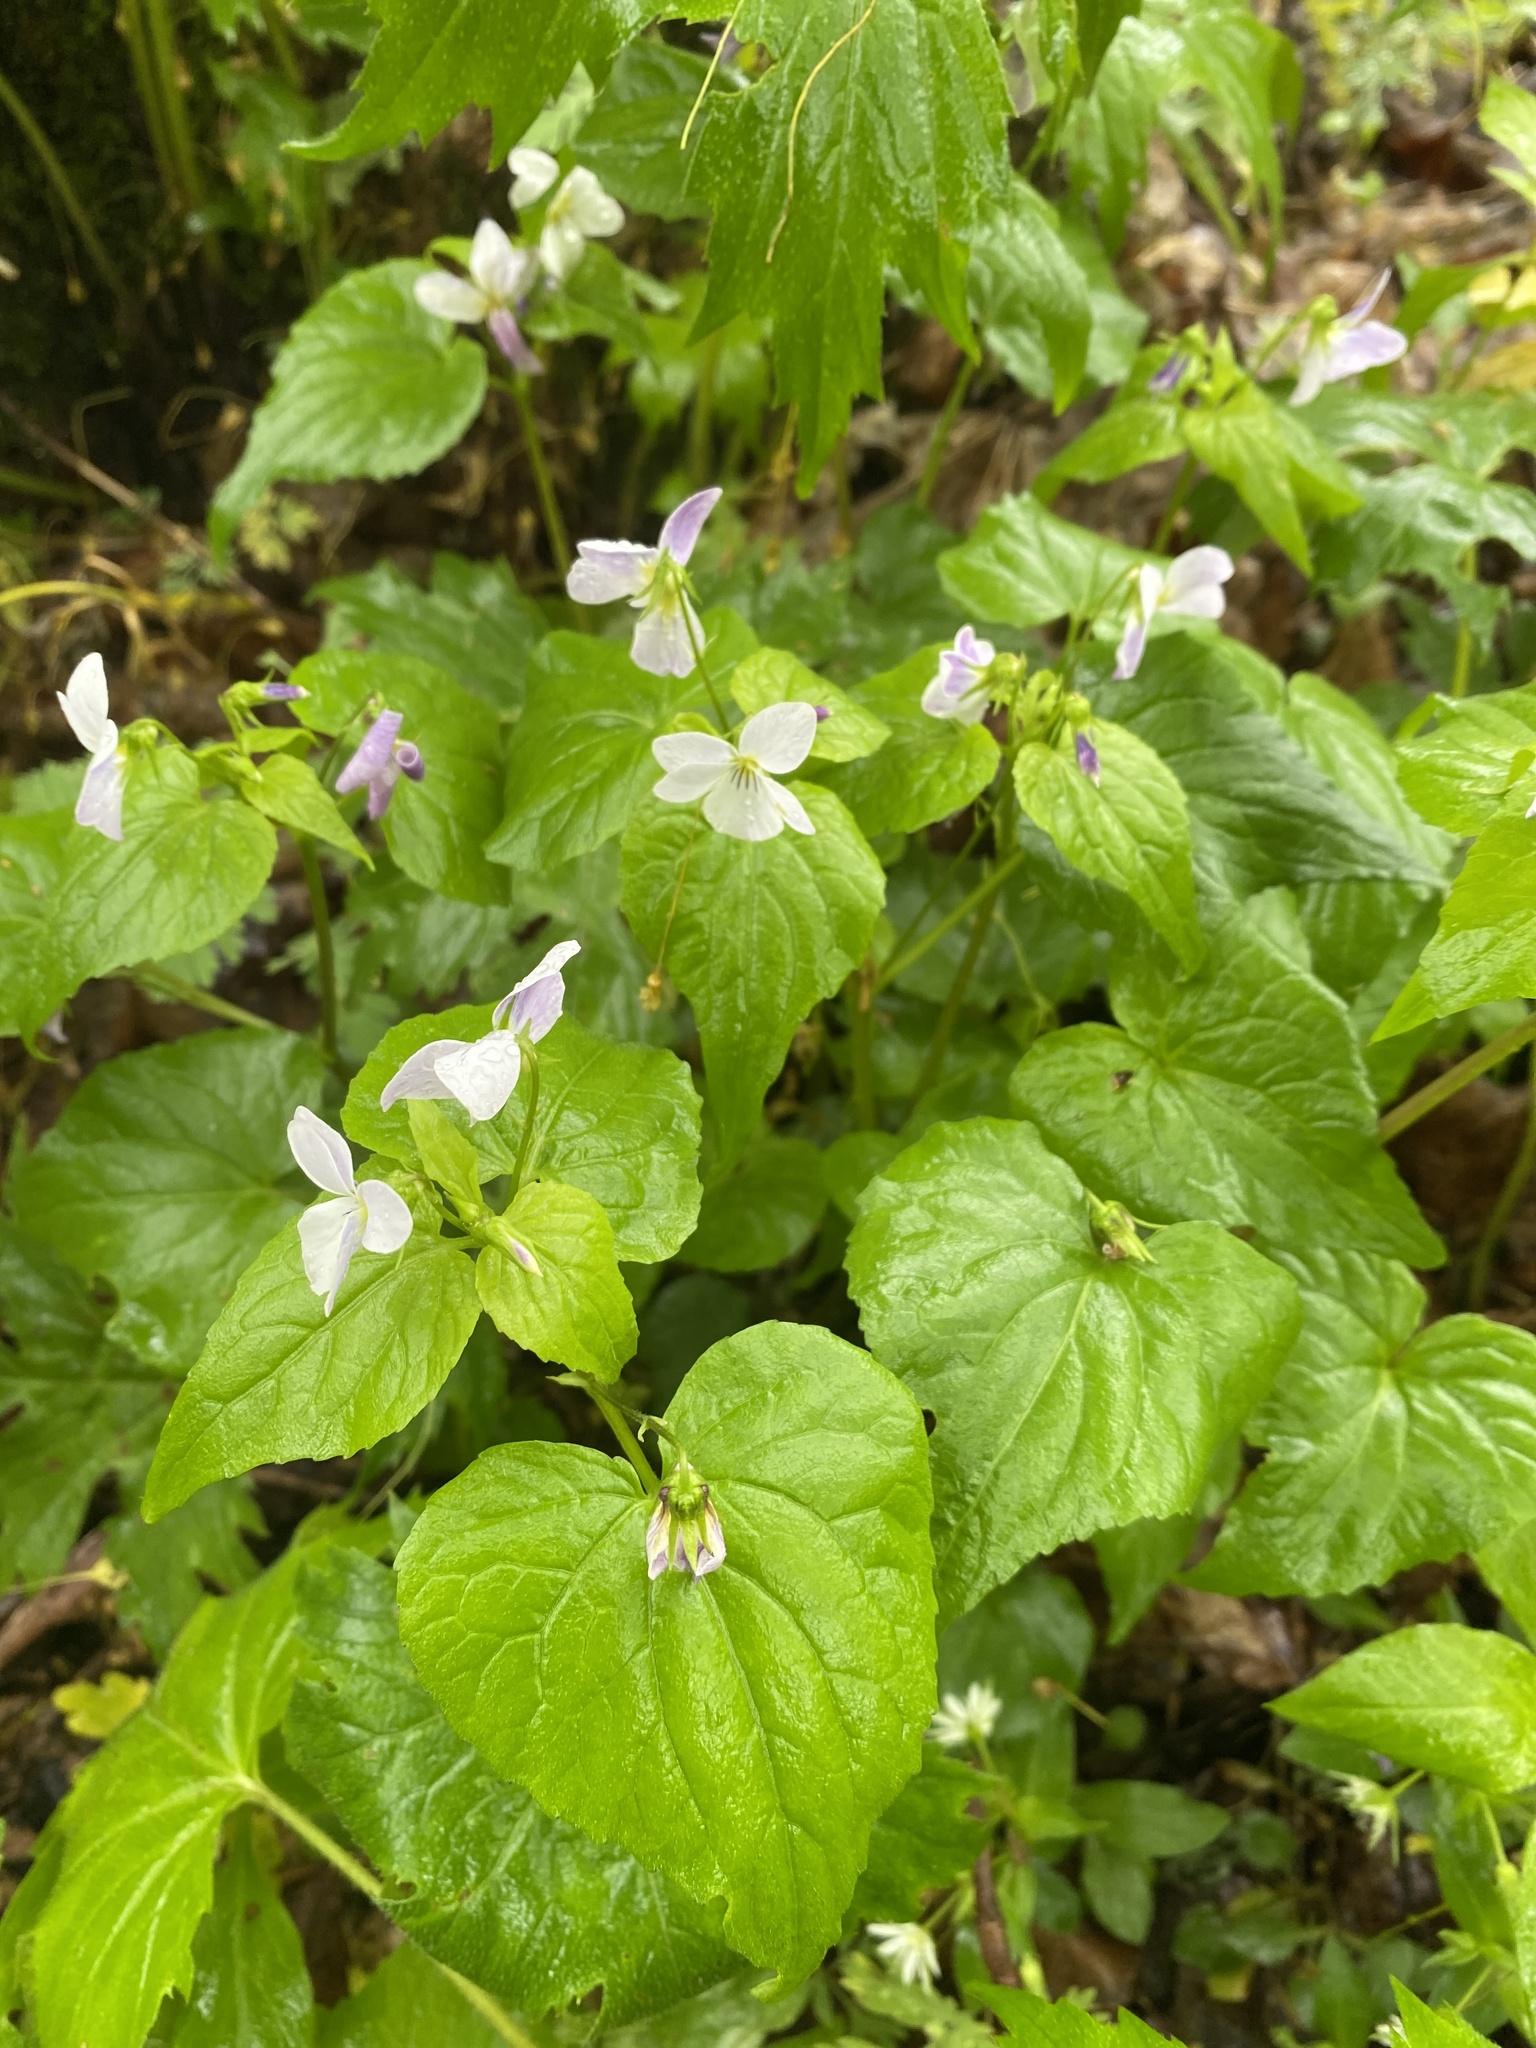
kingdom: Plantae
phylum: Tracheophyta
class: Magnoliopsida
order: Malpighiales
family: Violaceae
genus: Viola
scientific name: Viola canadensis
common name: Canada violet
